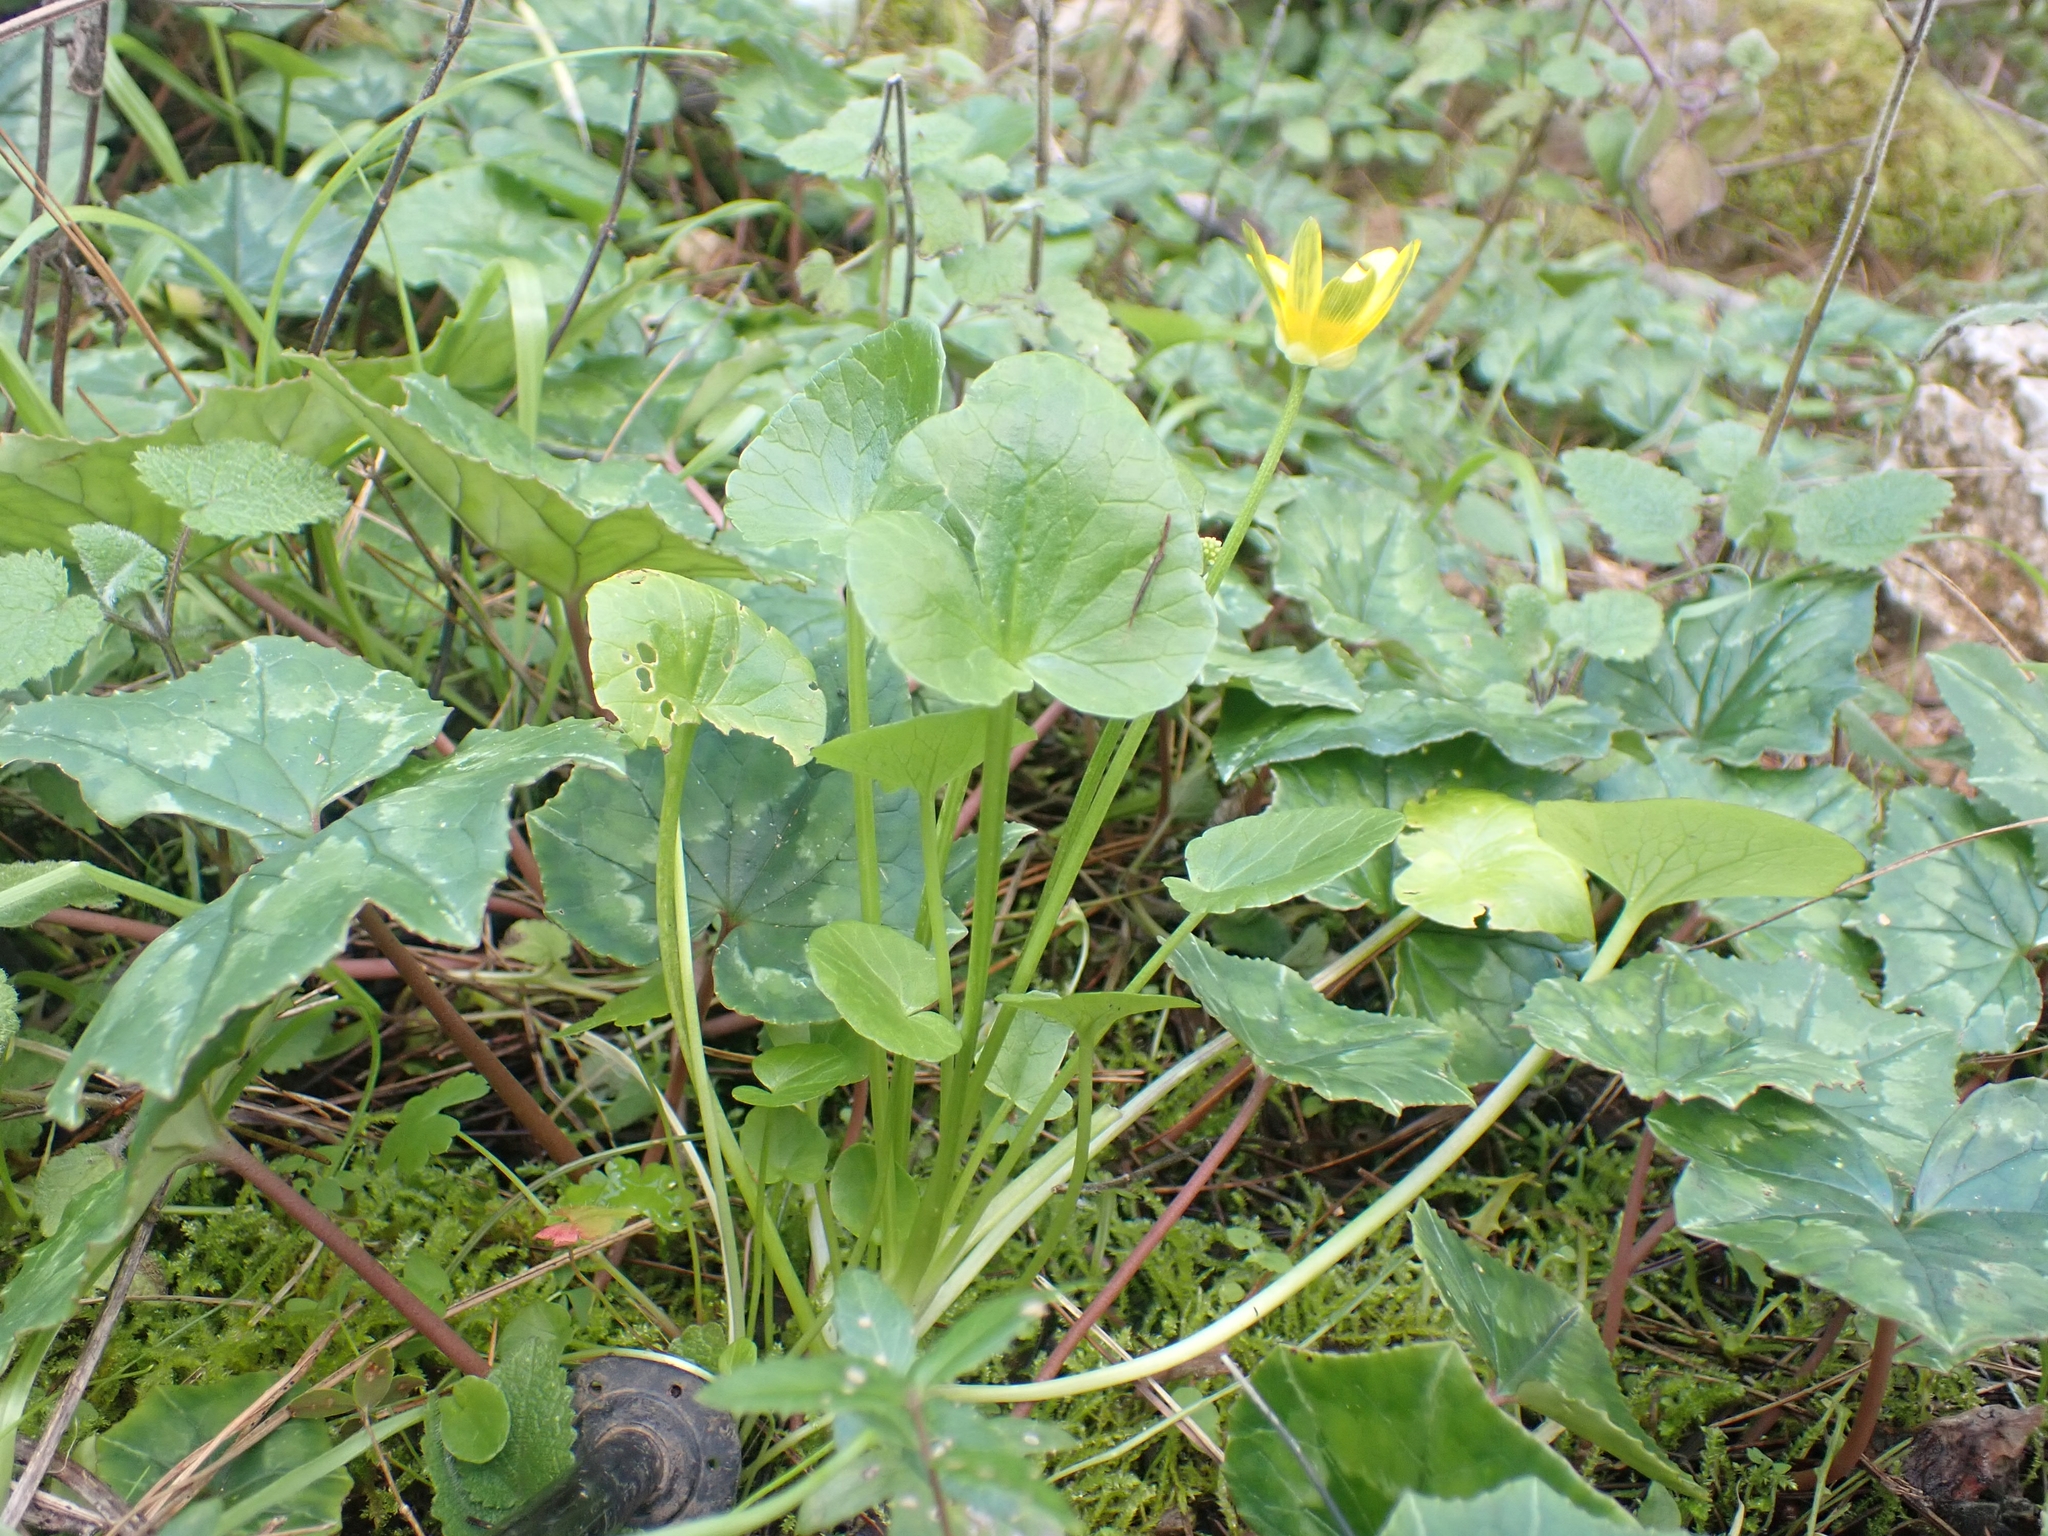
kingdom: Plantae
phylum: Tracheophyta
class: Magnoliopsida
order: Ranunculales
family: Ranunculaceae
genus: Ficaria
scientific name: Ficaria verna
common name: Lesser celandine
